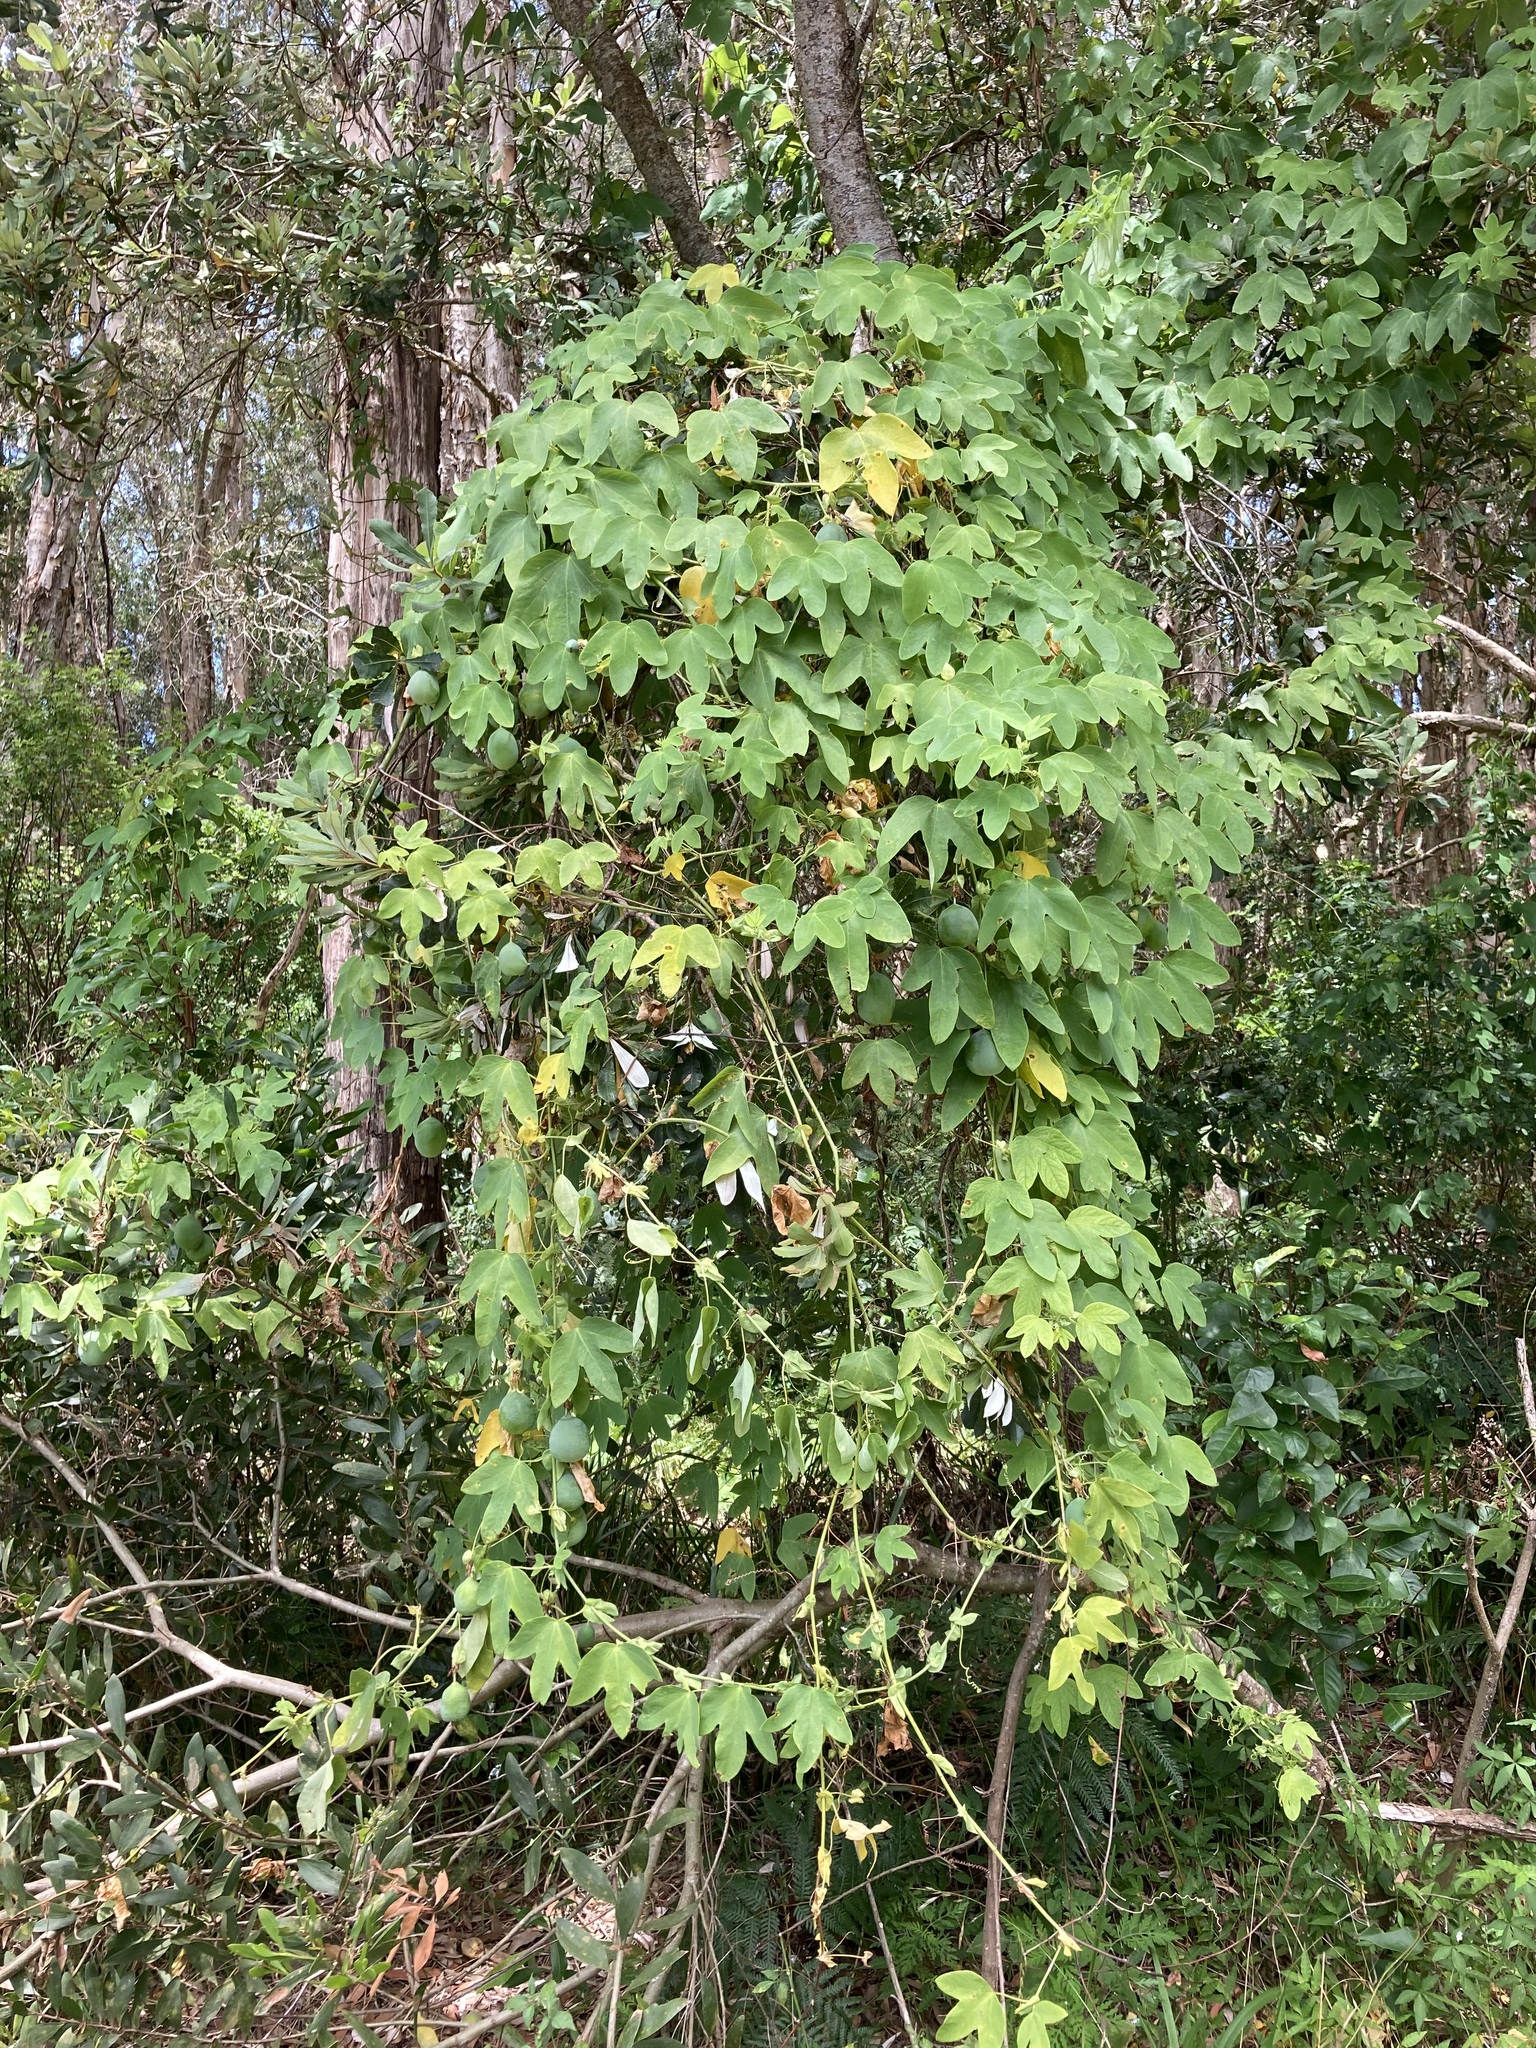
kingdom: Plantae
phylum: Tracheophyta
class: Magnoliopsida
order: Malpighiales
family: Passifloraceae
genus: Passiflora
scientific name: Passiflora subpeltata
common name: White passionflower
